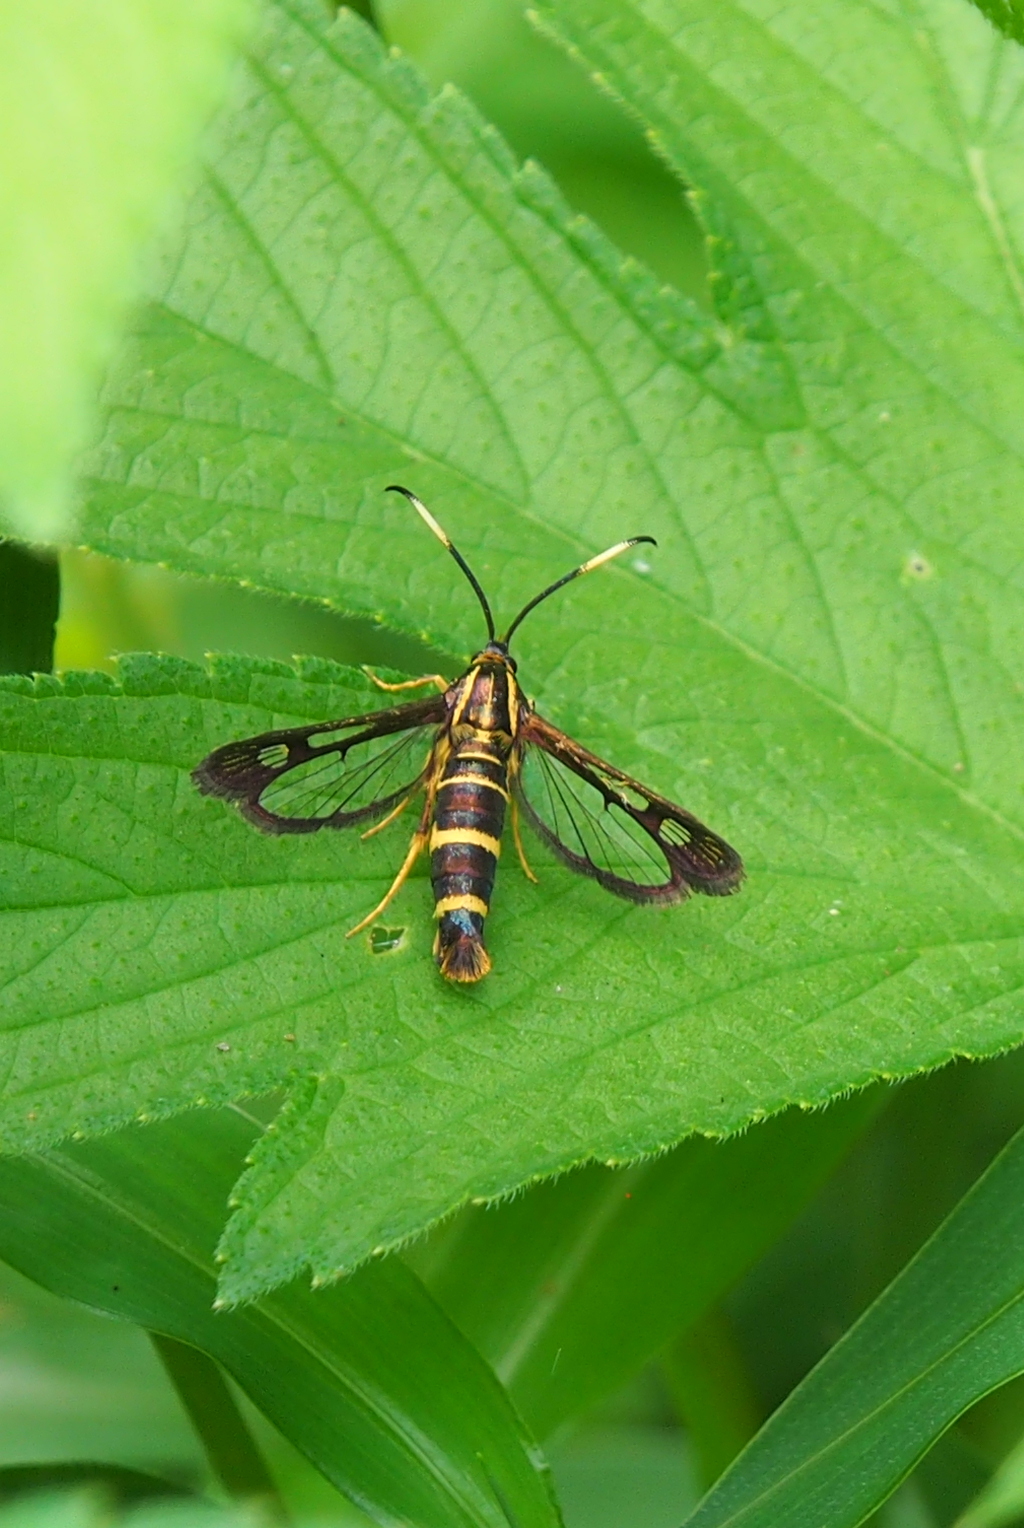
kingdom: Animalia
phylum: Arthropoda
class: Insecta
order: Lepidoptera
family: Sesiidae
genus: Carmenta
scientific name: Carmenta bassiformis
